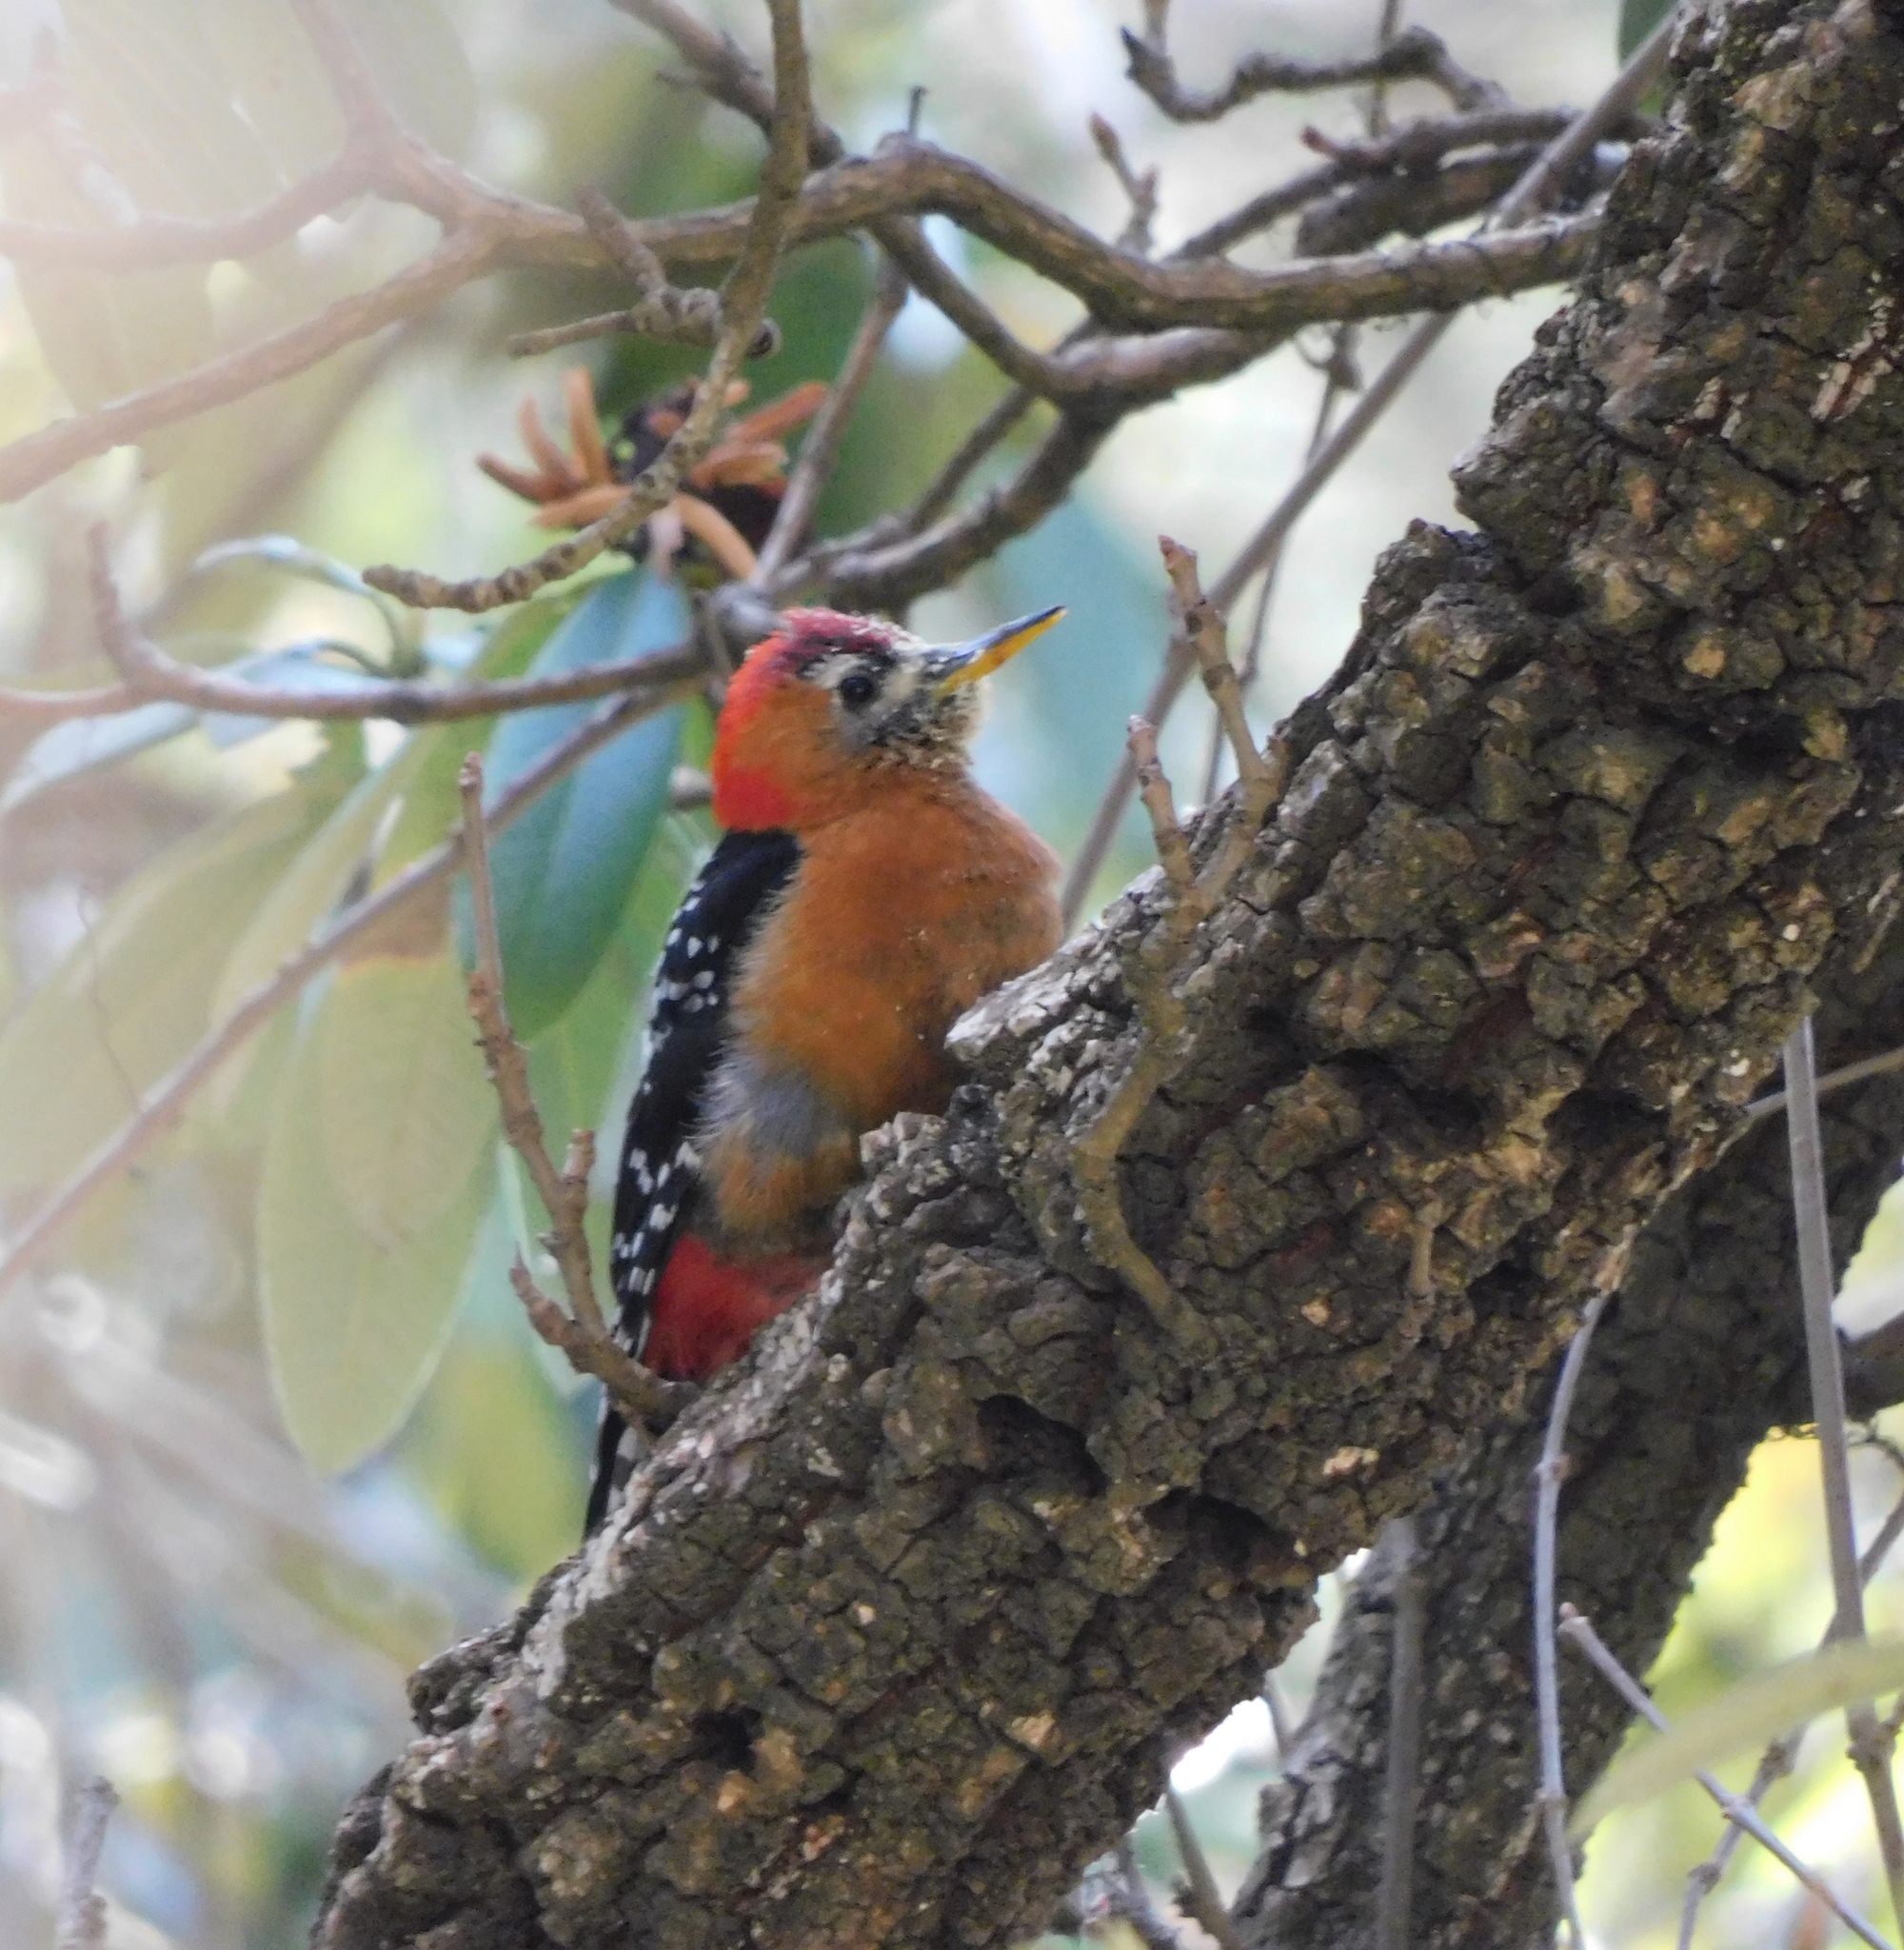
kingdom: Animalia
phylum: Chordata
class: Aves
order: Piciformes
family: Picidae
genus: Dendrocopos
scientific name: Dendrocopos hyperythrus
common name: Rufous-bellied woodpecker
